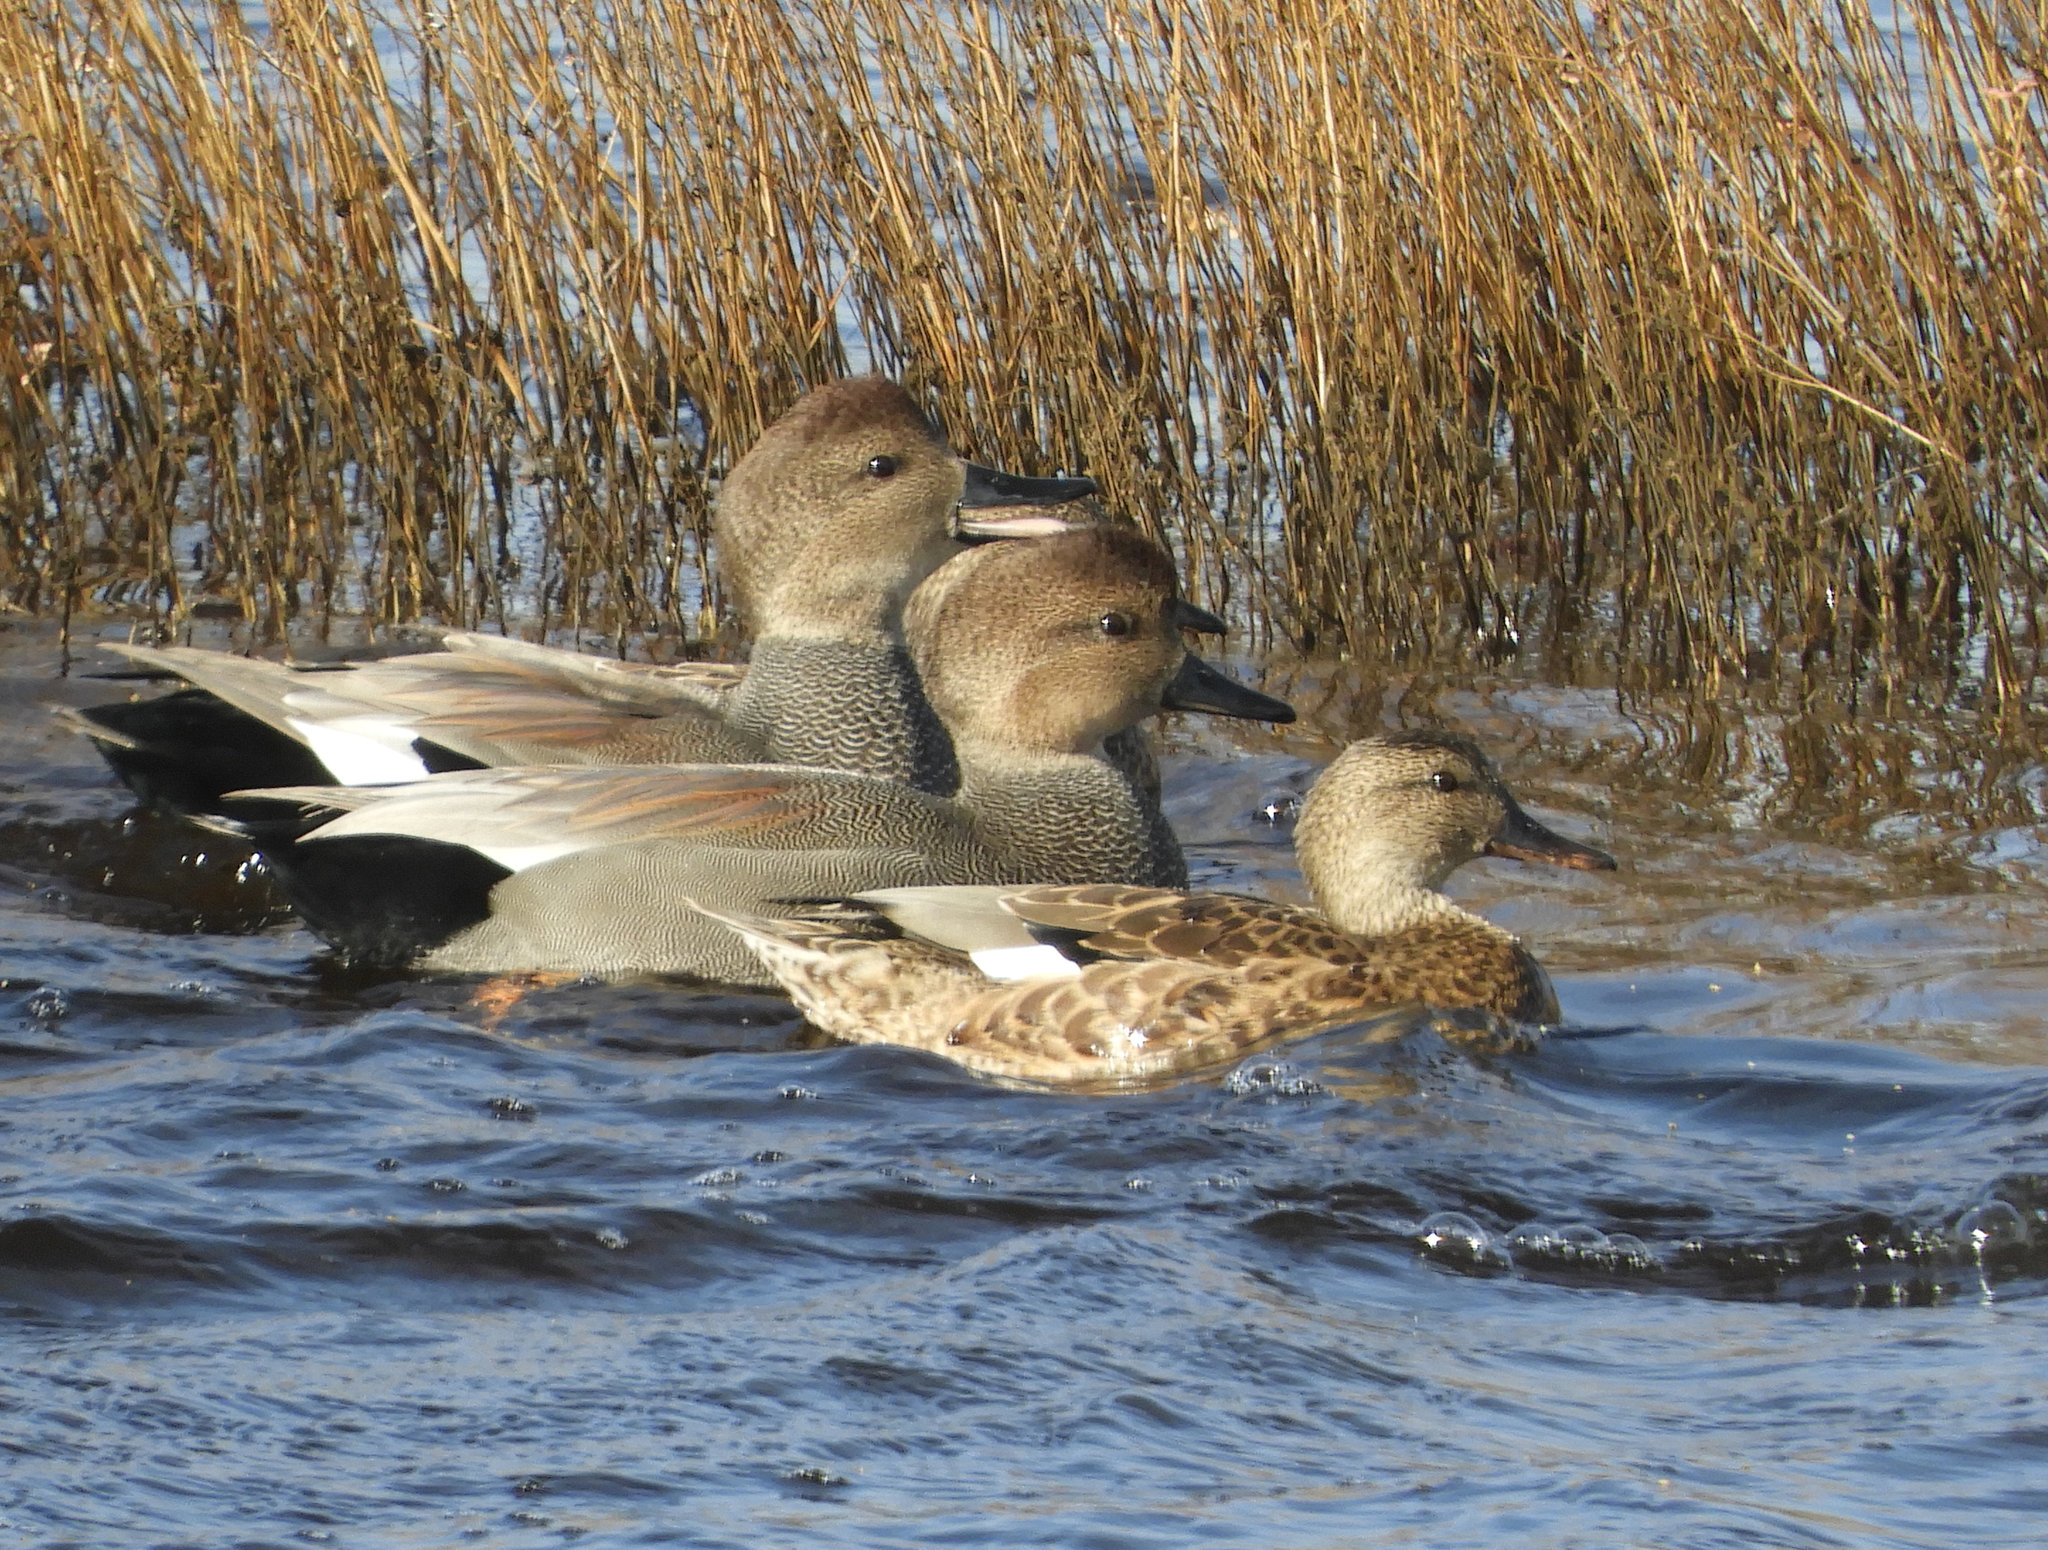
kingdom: Animalia
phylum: Chordata
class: Aves
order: Anseriformes
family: Anatidae
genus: Mareca
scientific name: Mareca strepera
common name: Gadwall
